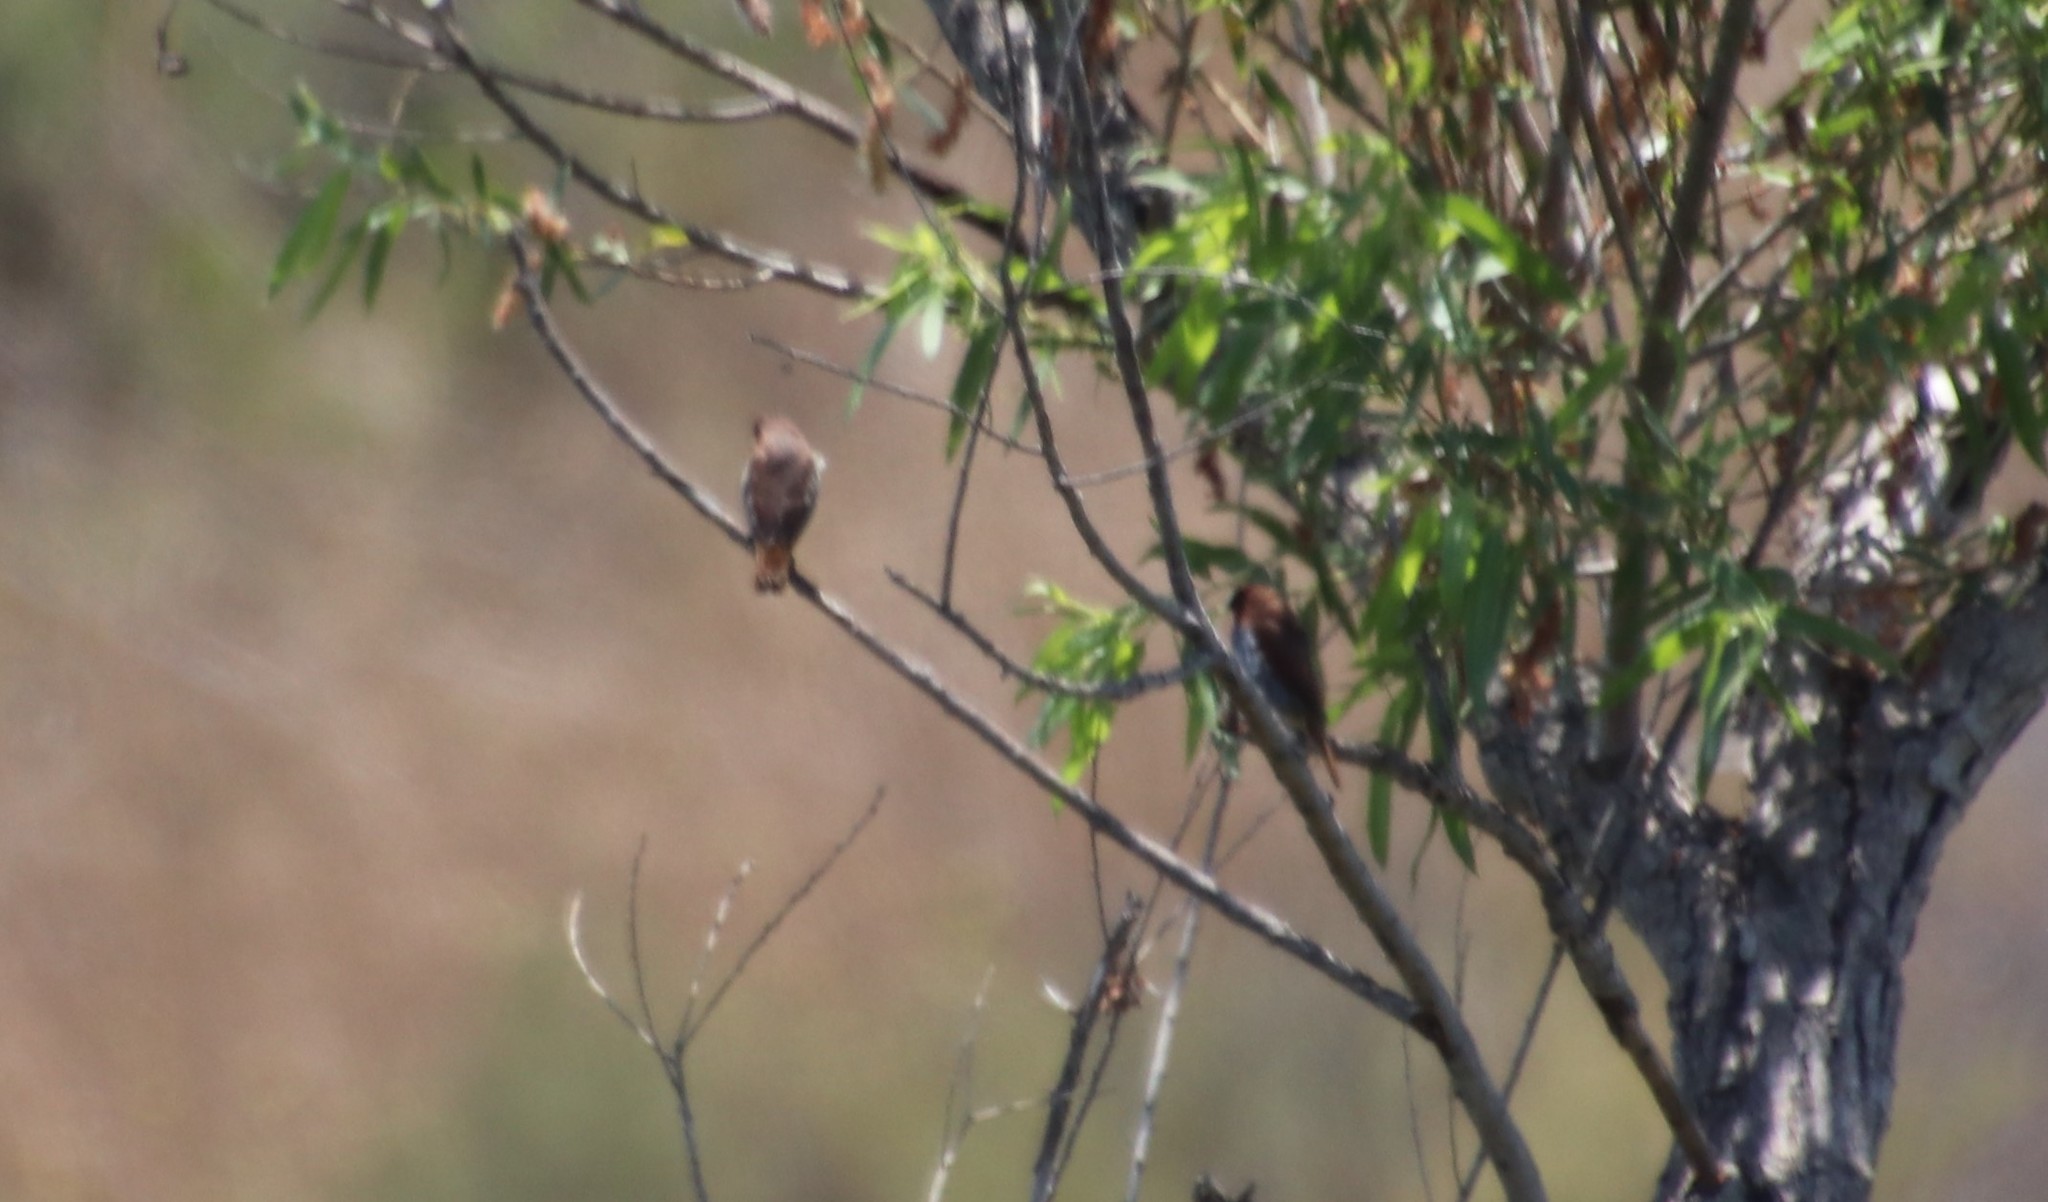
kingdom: Animalia
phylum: Chordata
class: Aves
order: Passeriformes
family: Estrildidae
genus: Lonchura
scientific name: Lonchura punctulata
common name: Scaly-breasted munia
